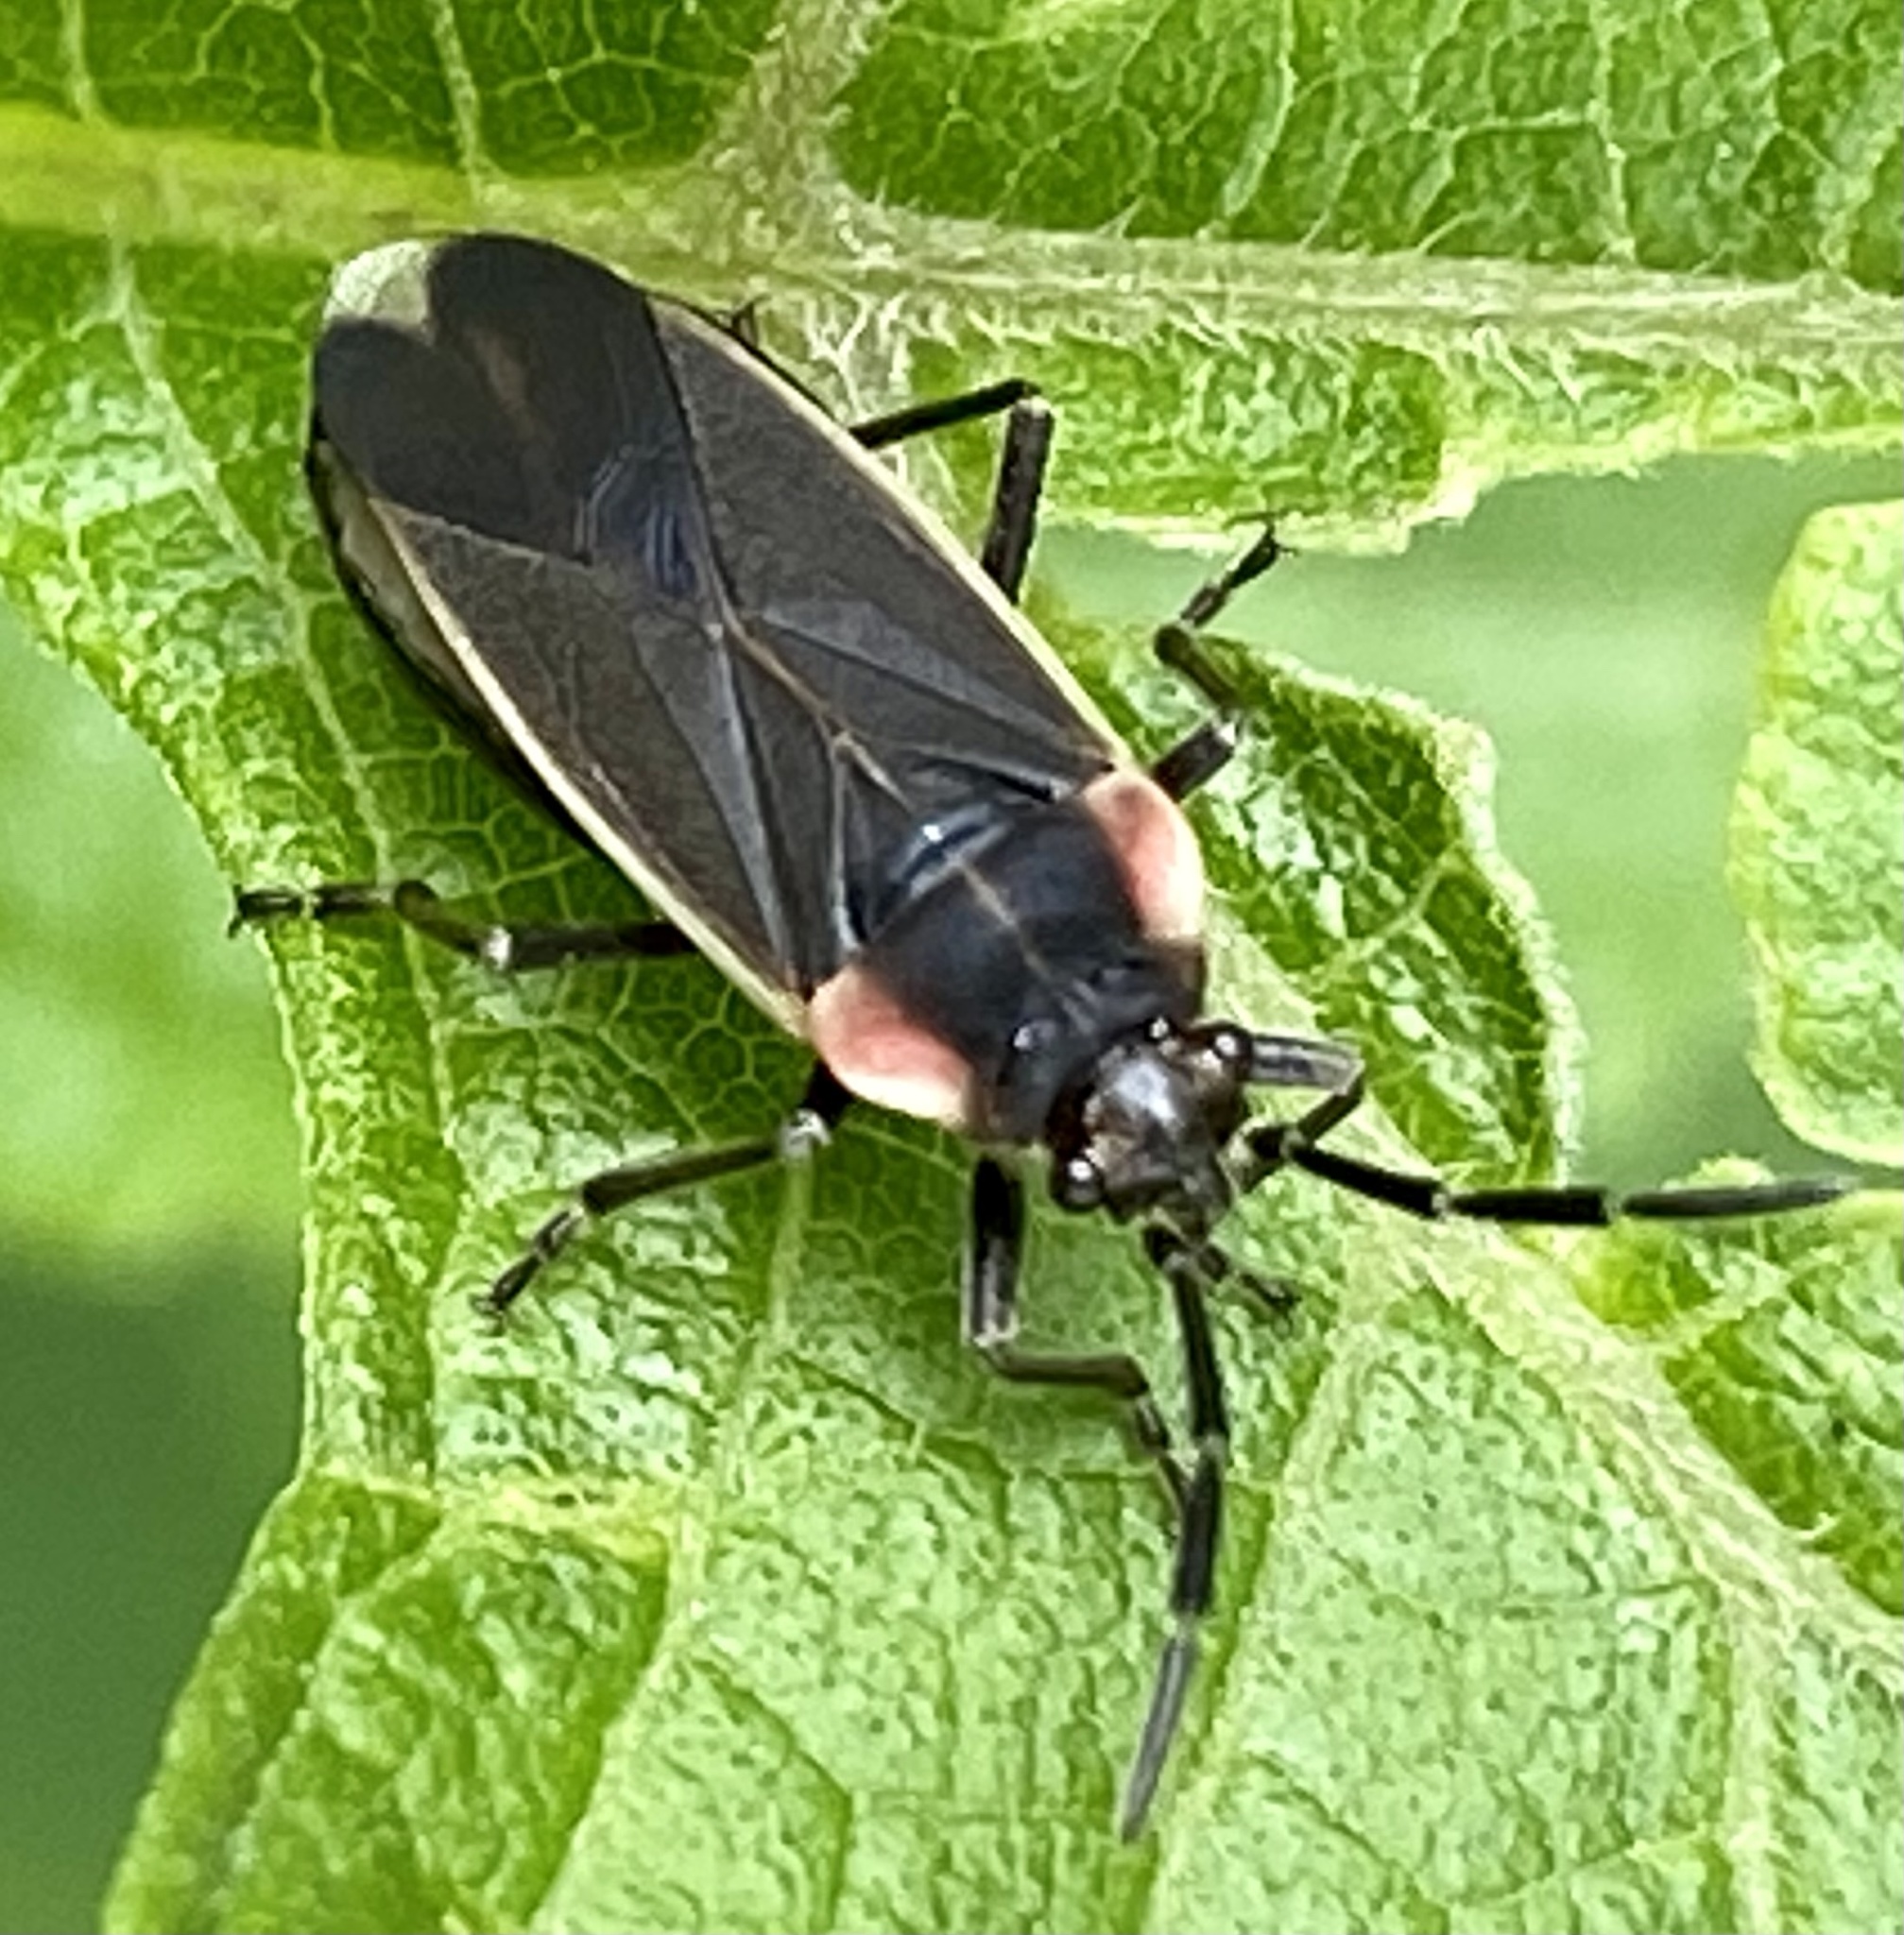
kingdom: Animalia
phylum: Arthropoda
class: Insecta
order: Hemiptera
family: Lygaeidae
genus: Acroleucus
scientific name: Acroleucus coxalis
